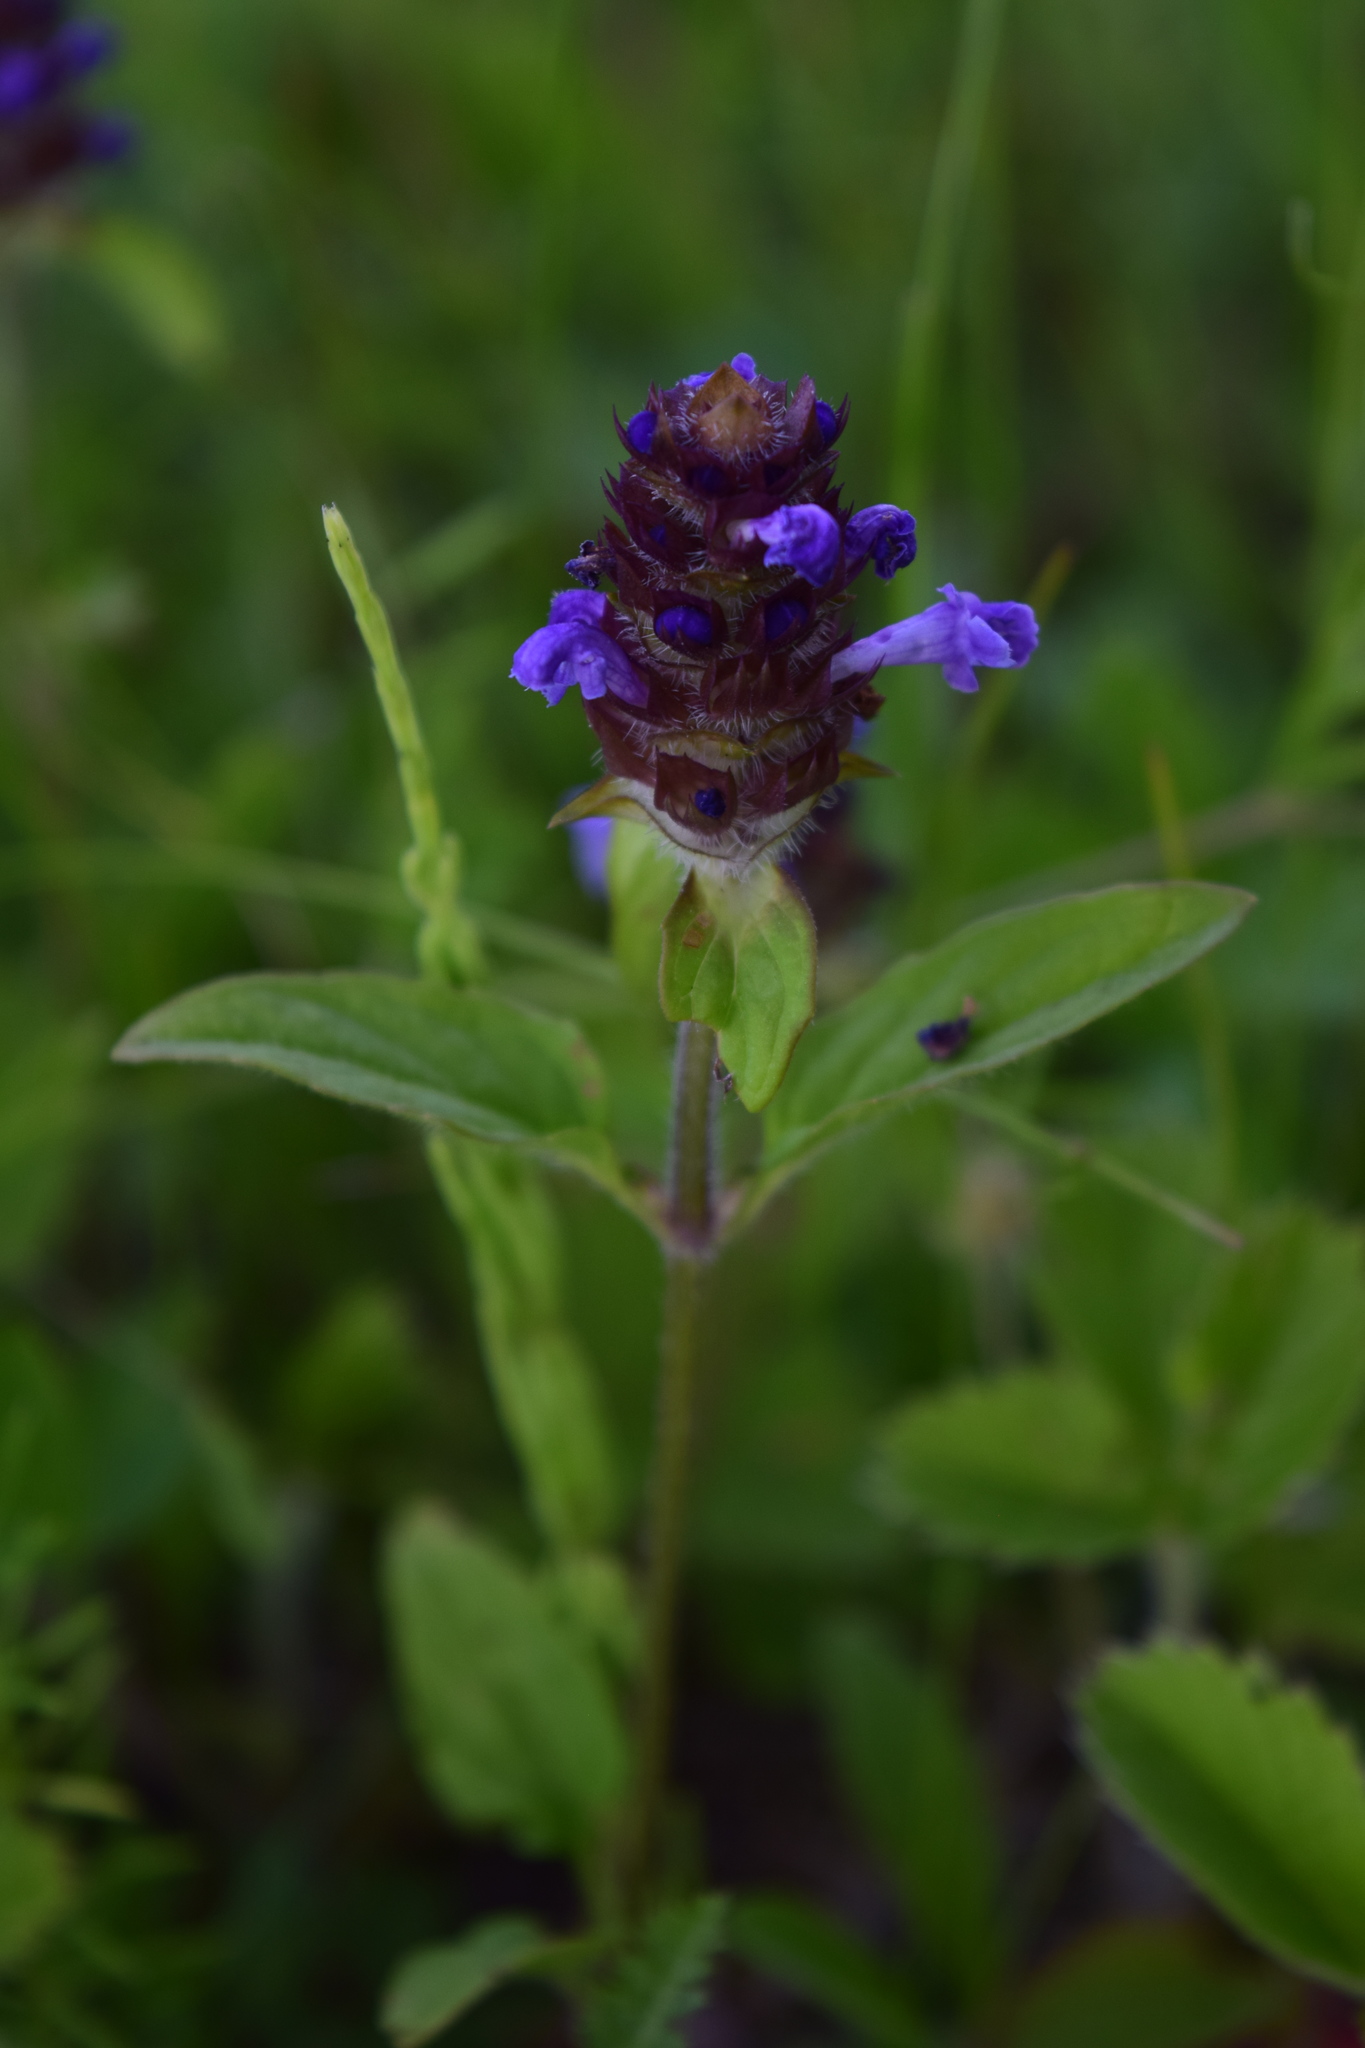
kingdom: Plantae
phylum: Tracheophyta
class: Magnoliopsida
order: Lamiales
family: Lamiaceae
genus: Prunella
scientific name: Prunella vulgaris
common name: Heal-all
